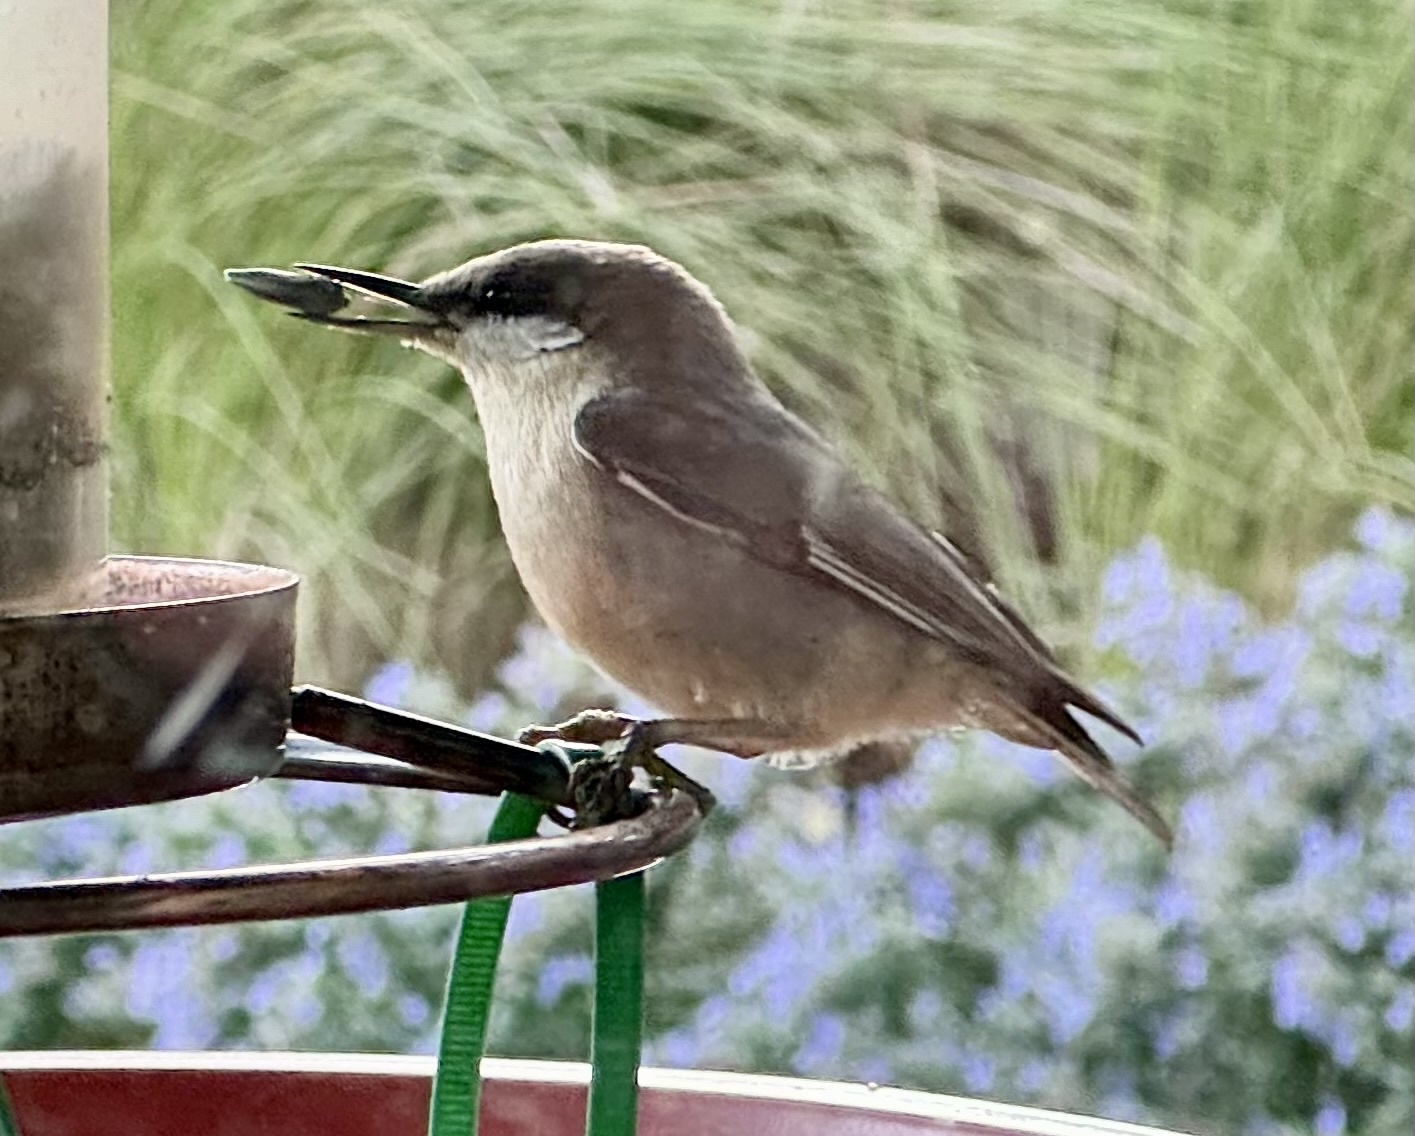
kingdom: Animalia
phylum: Chordata
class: Aves
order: Passeriformes
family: Sittidae
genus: Sitta
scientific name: Sitta pygmaea
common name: Pygmy nuthatch
